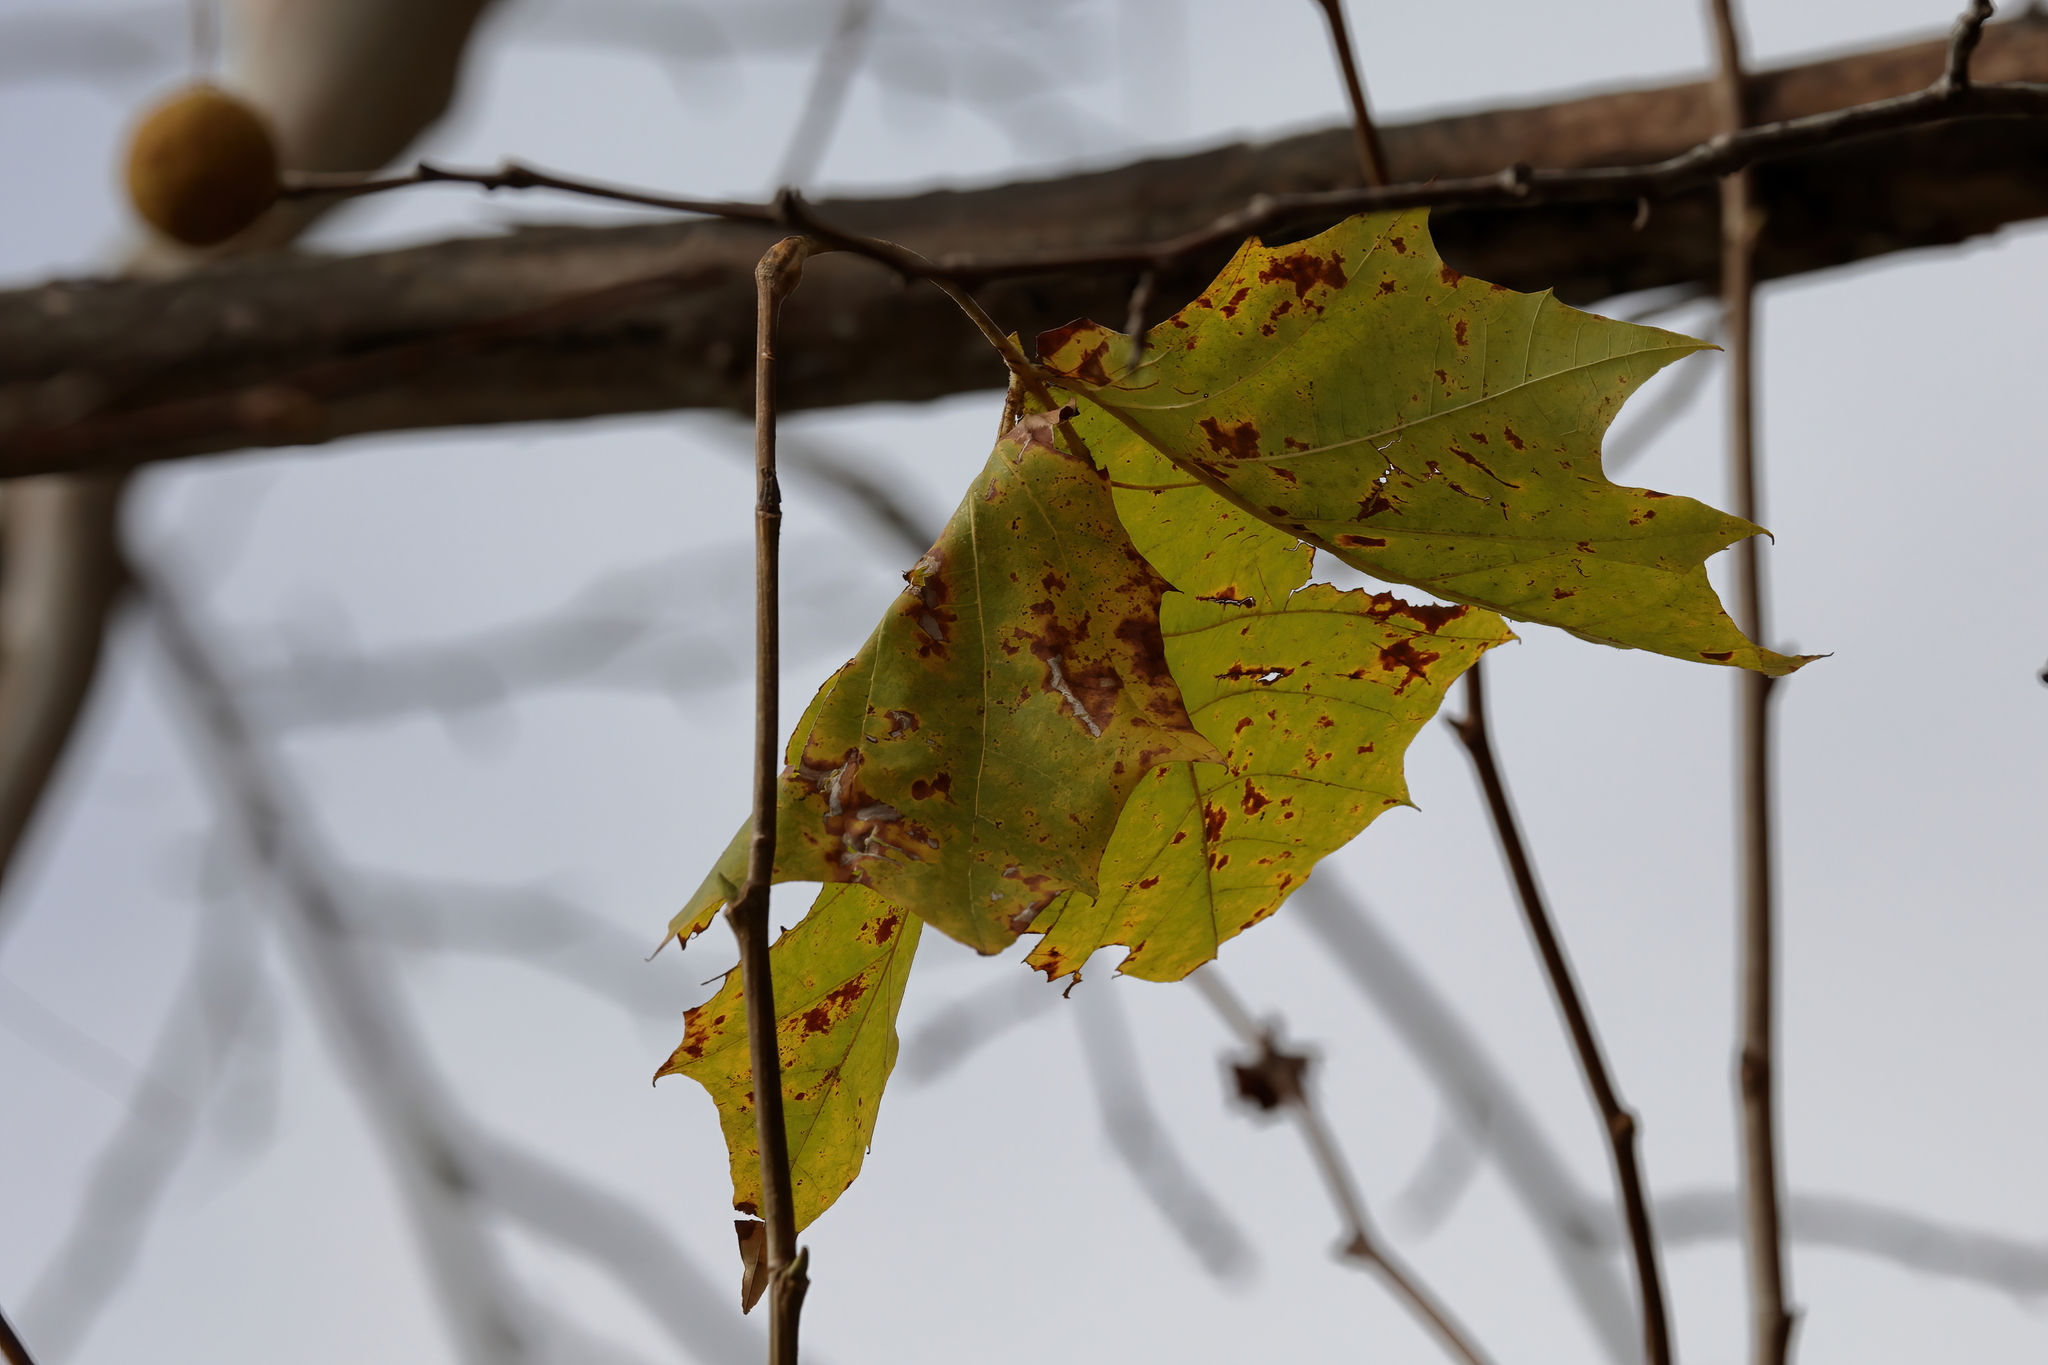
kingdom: Plantae
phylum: Tracheophyta
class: Magnoliopsida
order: Proteales
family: Platanaceae
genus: Platanus
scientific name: Platanus occidentalis
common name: American sycamore
